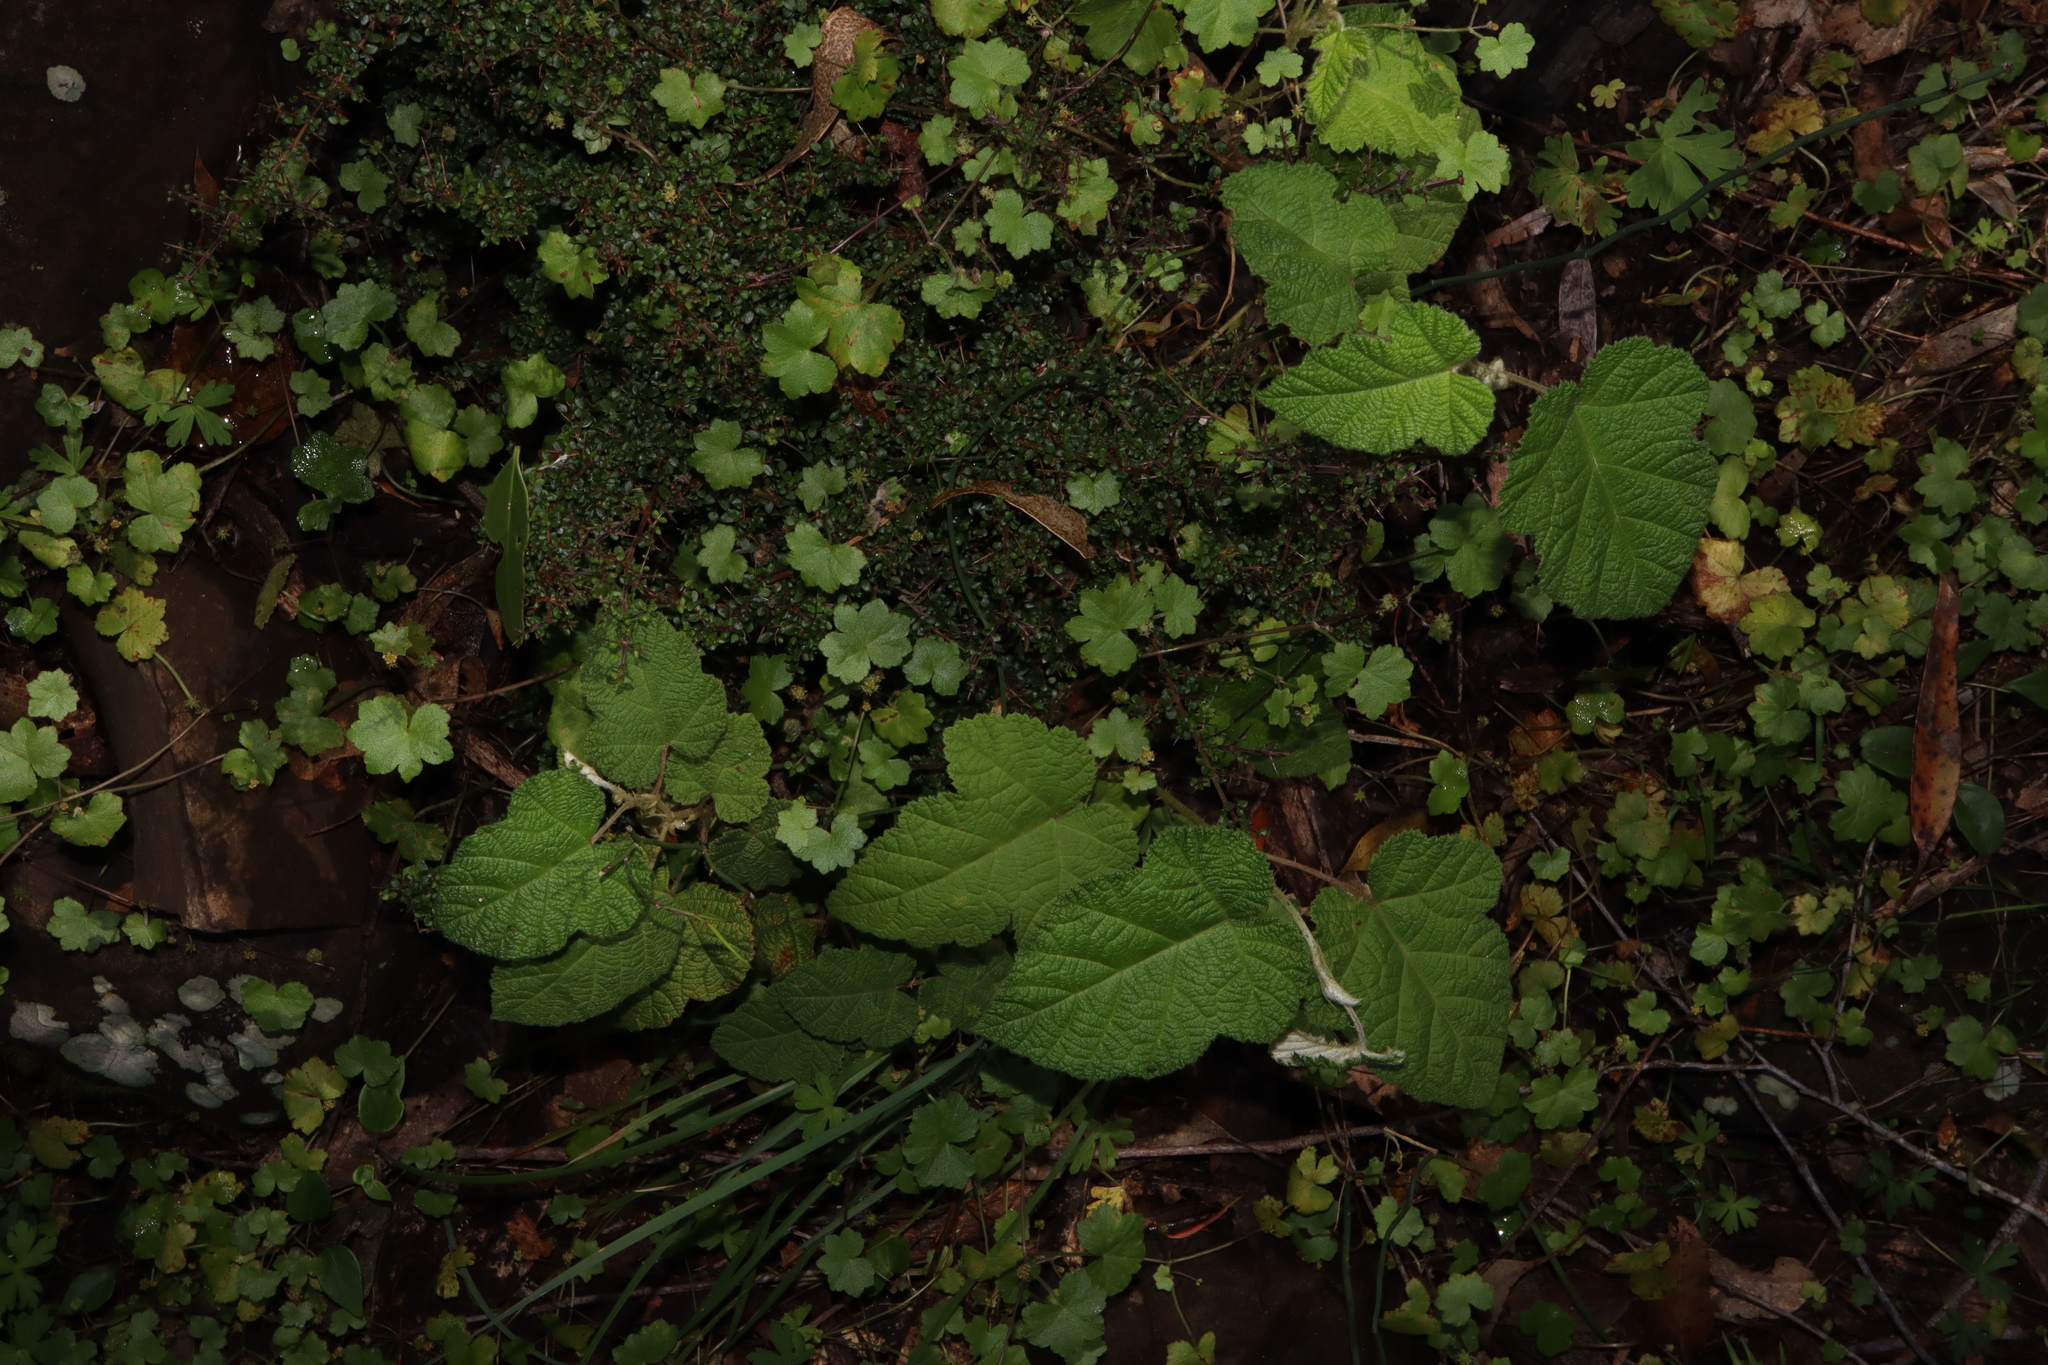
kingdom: Plantae
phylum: Tracheophyta
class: Magnoliopsida
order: Rosales
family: Rosaceae
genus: Rubus
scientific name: Rubus moluccanus
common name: Wild raspberry
